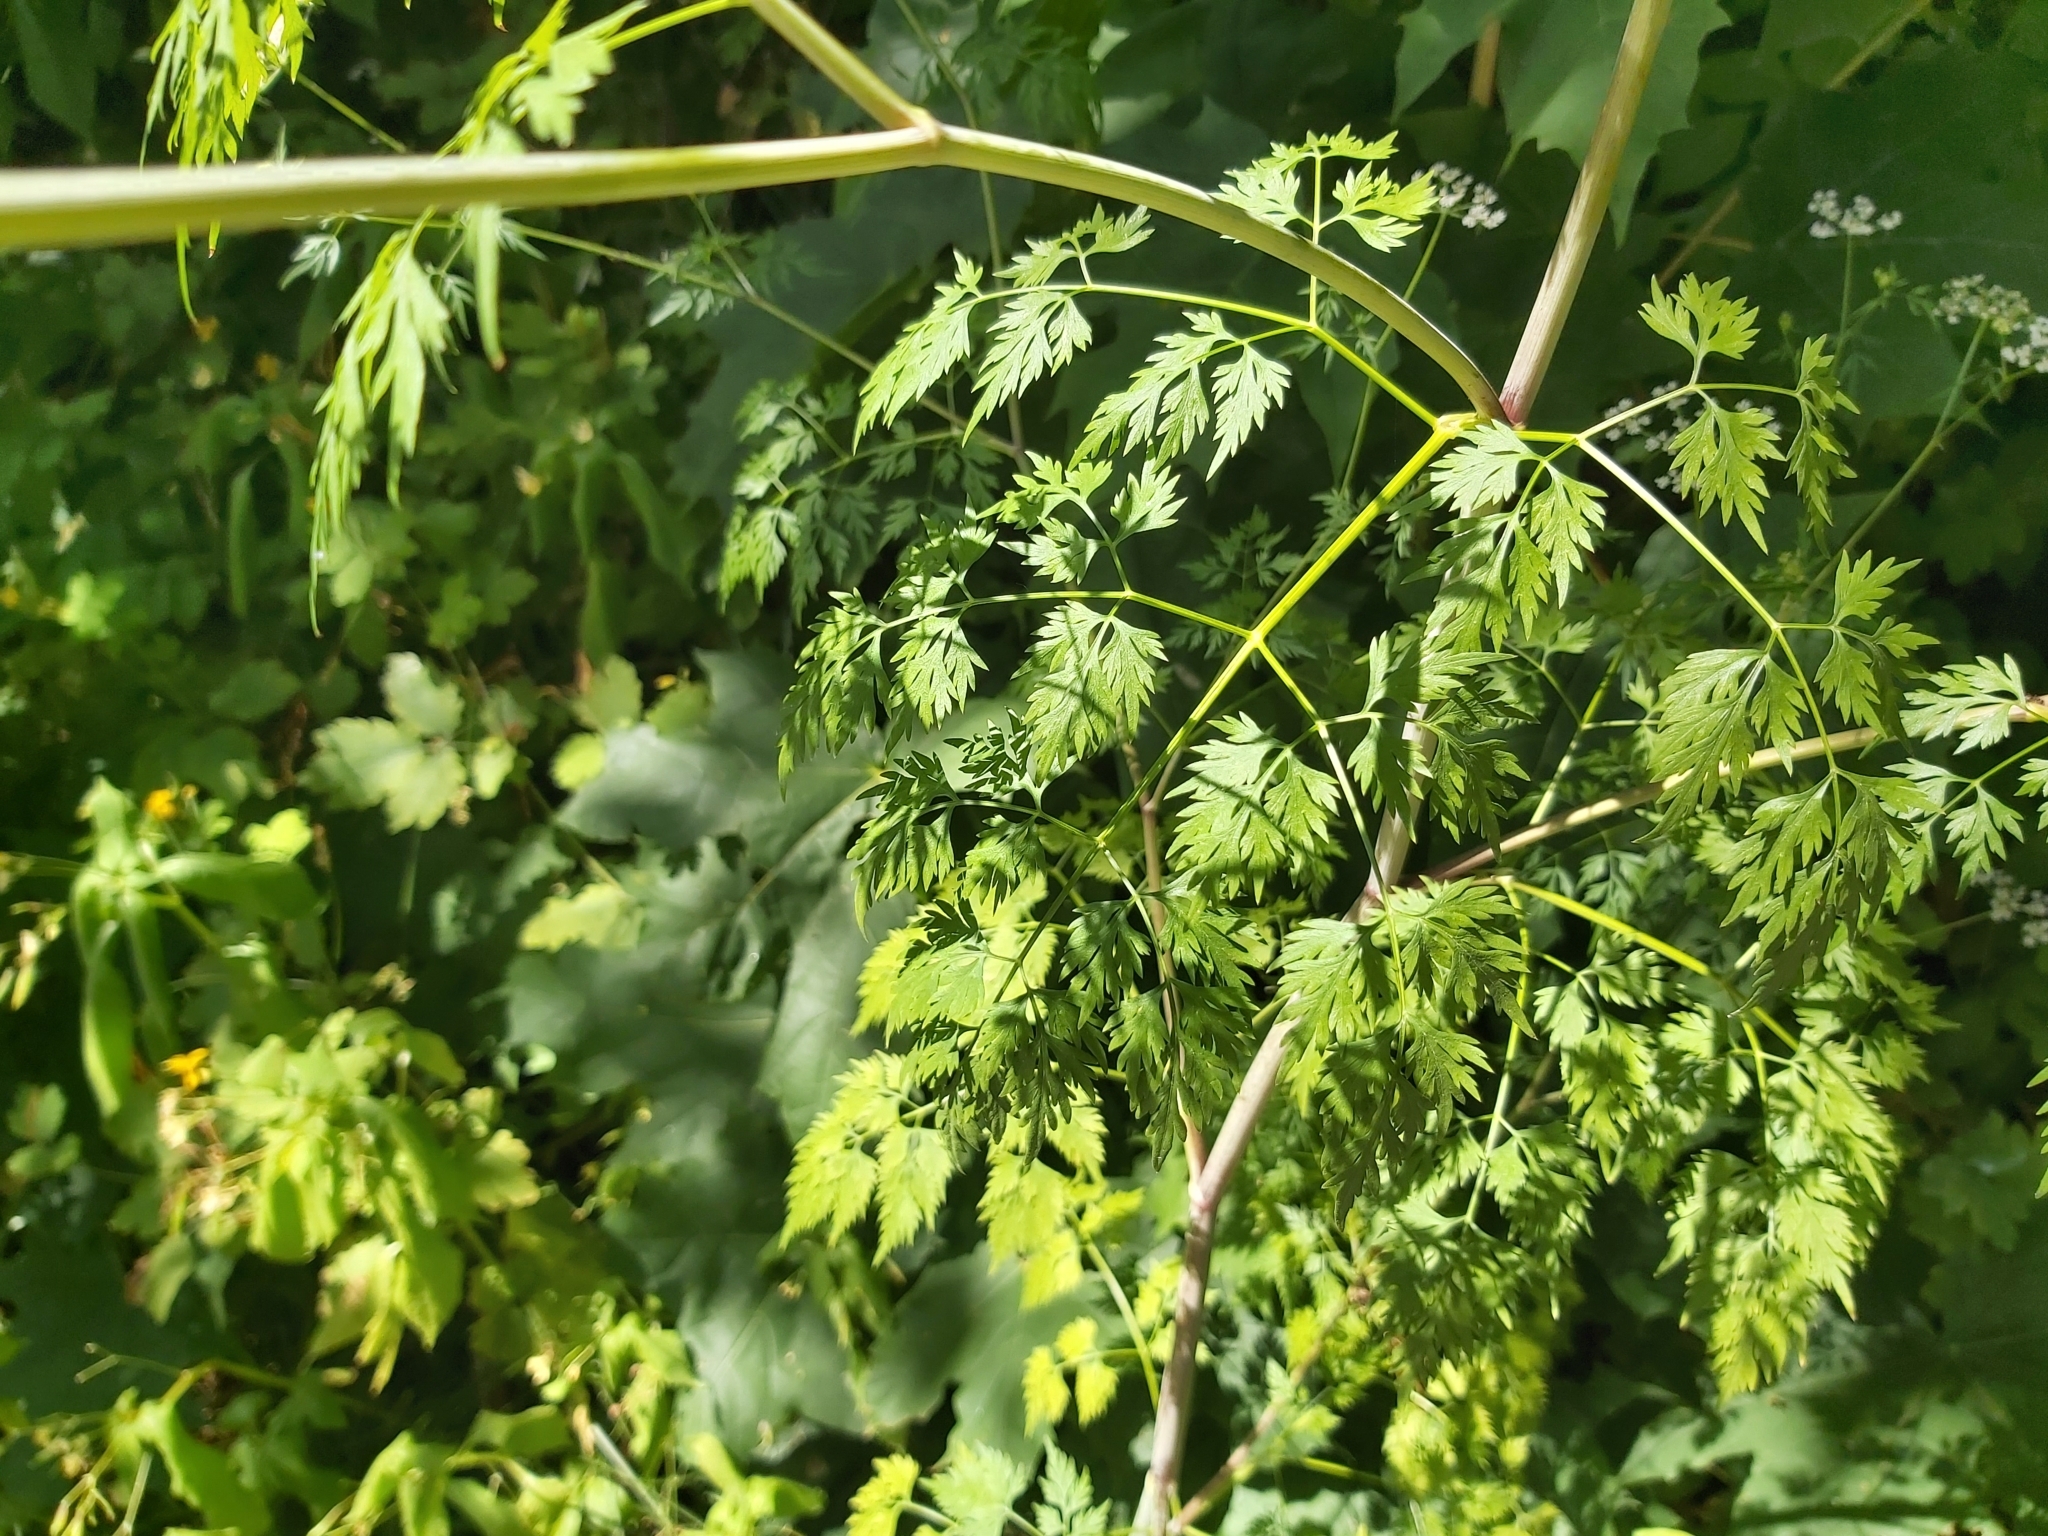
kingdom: Plantae
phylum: Tracheophyta
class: Magnoliopsida
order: Apiales
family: Apiaceae
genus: Aethusa
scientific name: Aethusa cynapium
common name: Fool's parsley
